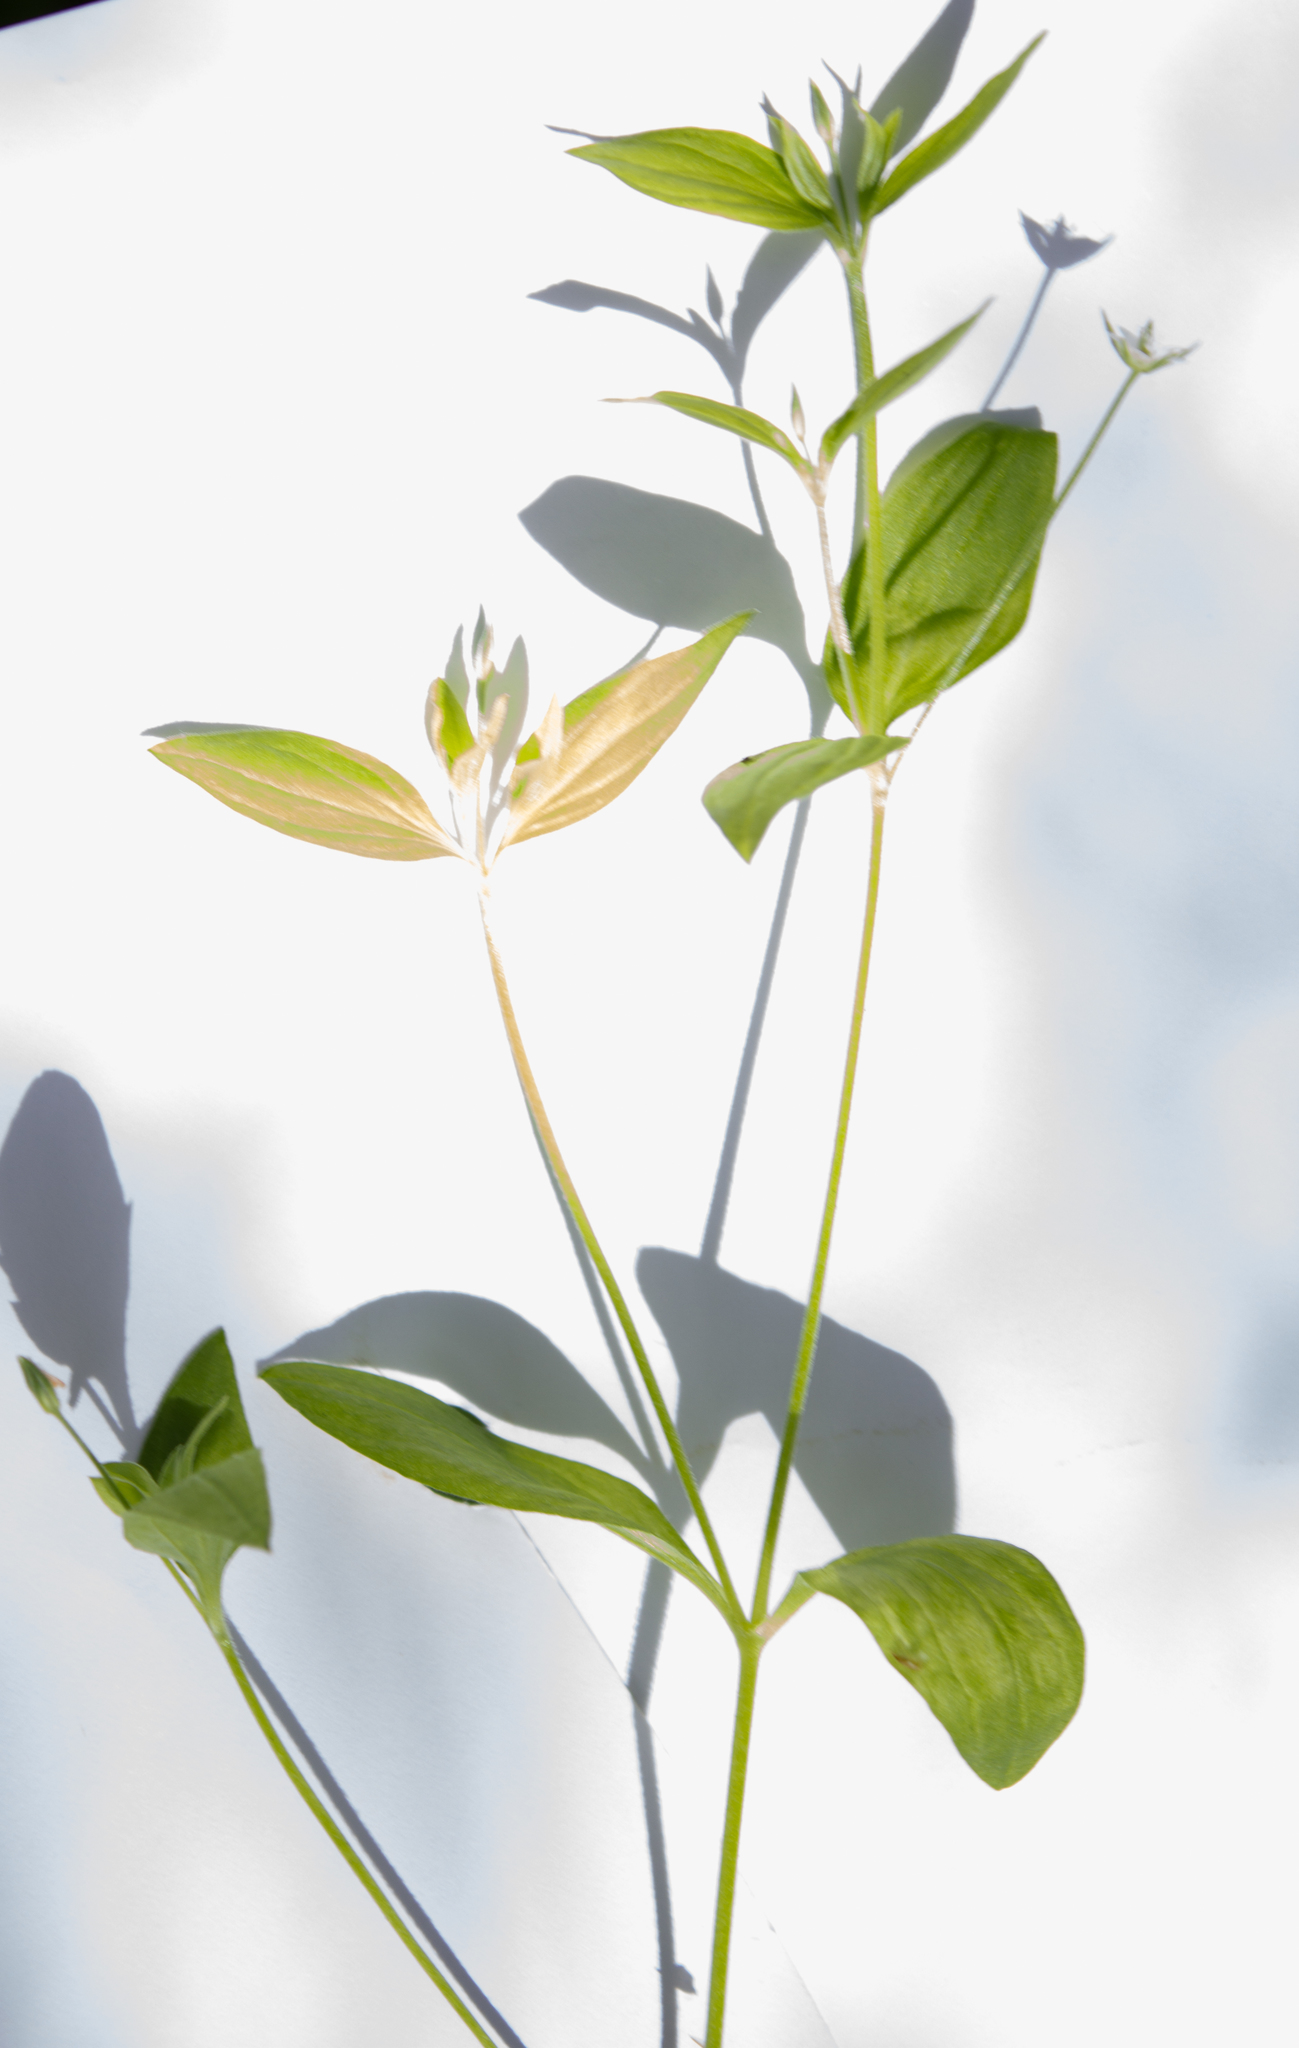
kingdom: Plantae
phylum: Tracheophyta
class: Magnoliopsida
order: Caryophyllales
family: Caryophyllaceae
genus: Moehringia
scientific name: Moehringia trinervia
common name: Three-nerved sandwort
